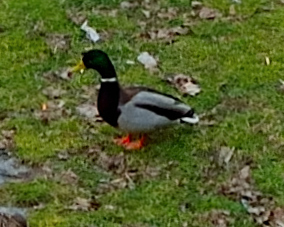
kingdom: Animalia
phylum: Chordata
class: Aves
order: Anseriformes
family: Anatidae
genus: Anas
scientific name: Anas platyrhynchos
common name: Mallard
